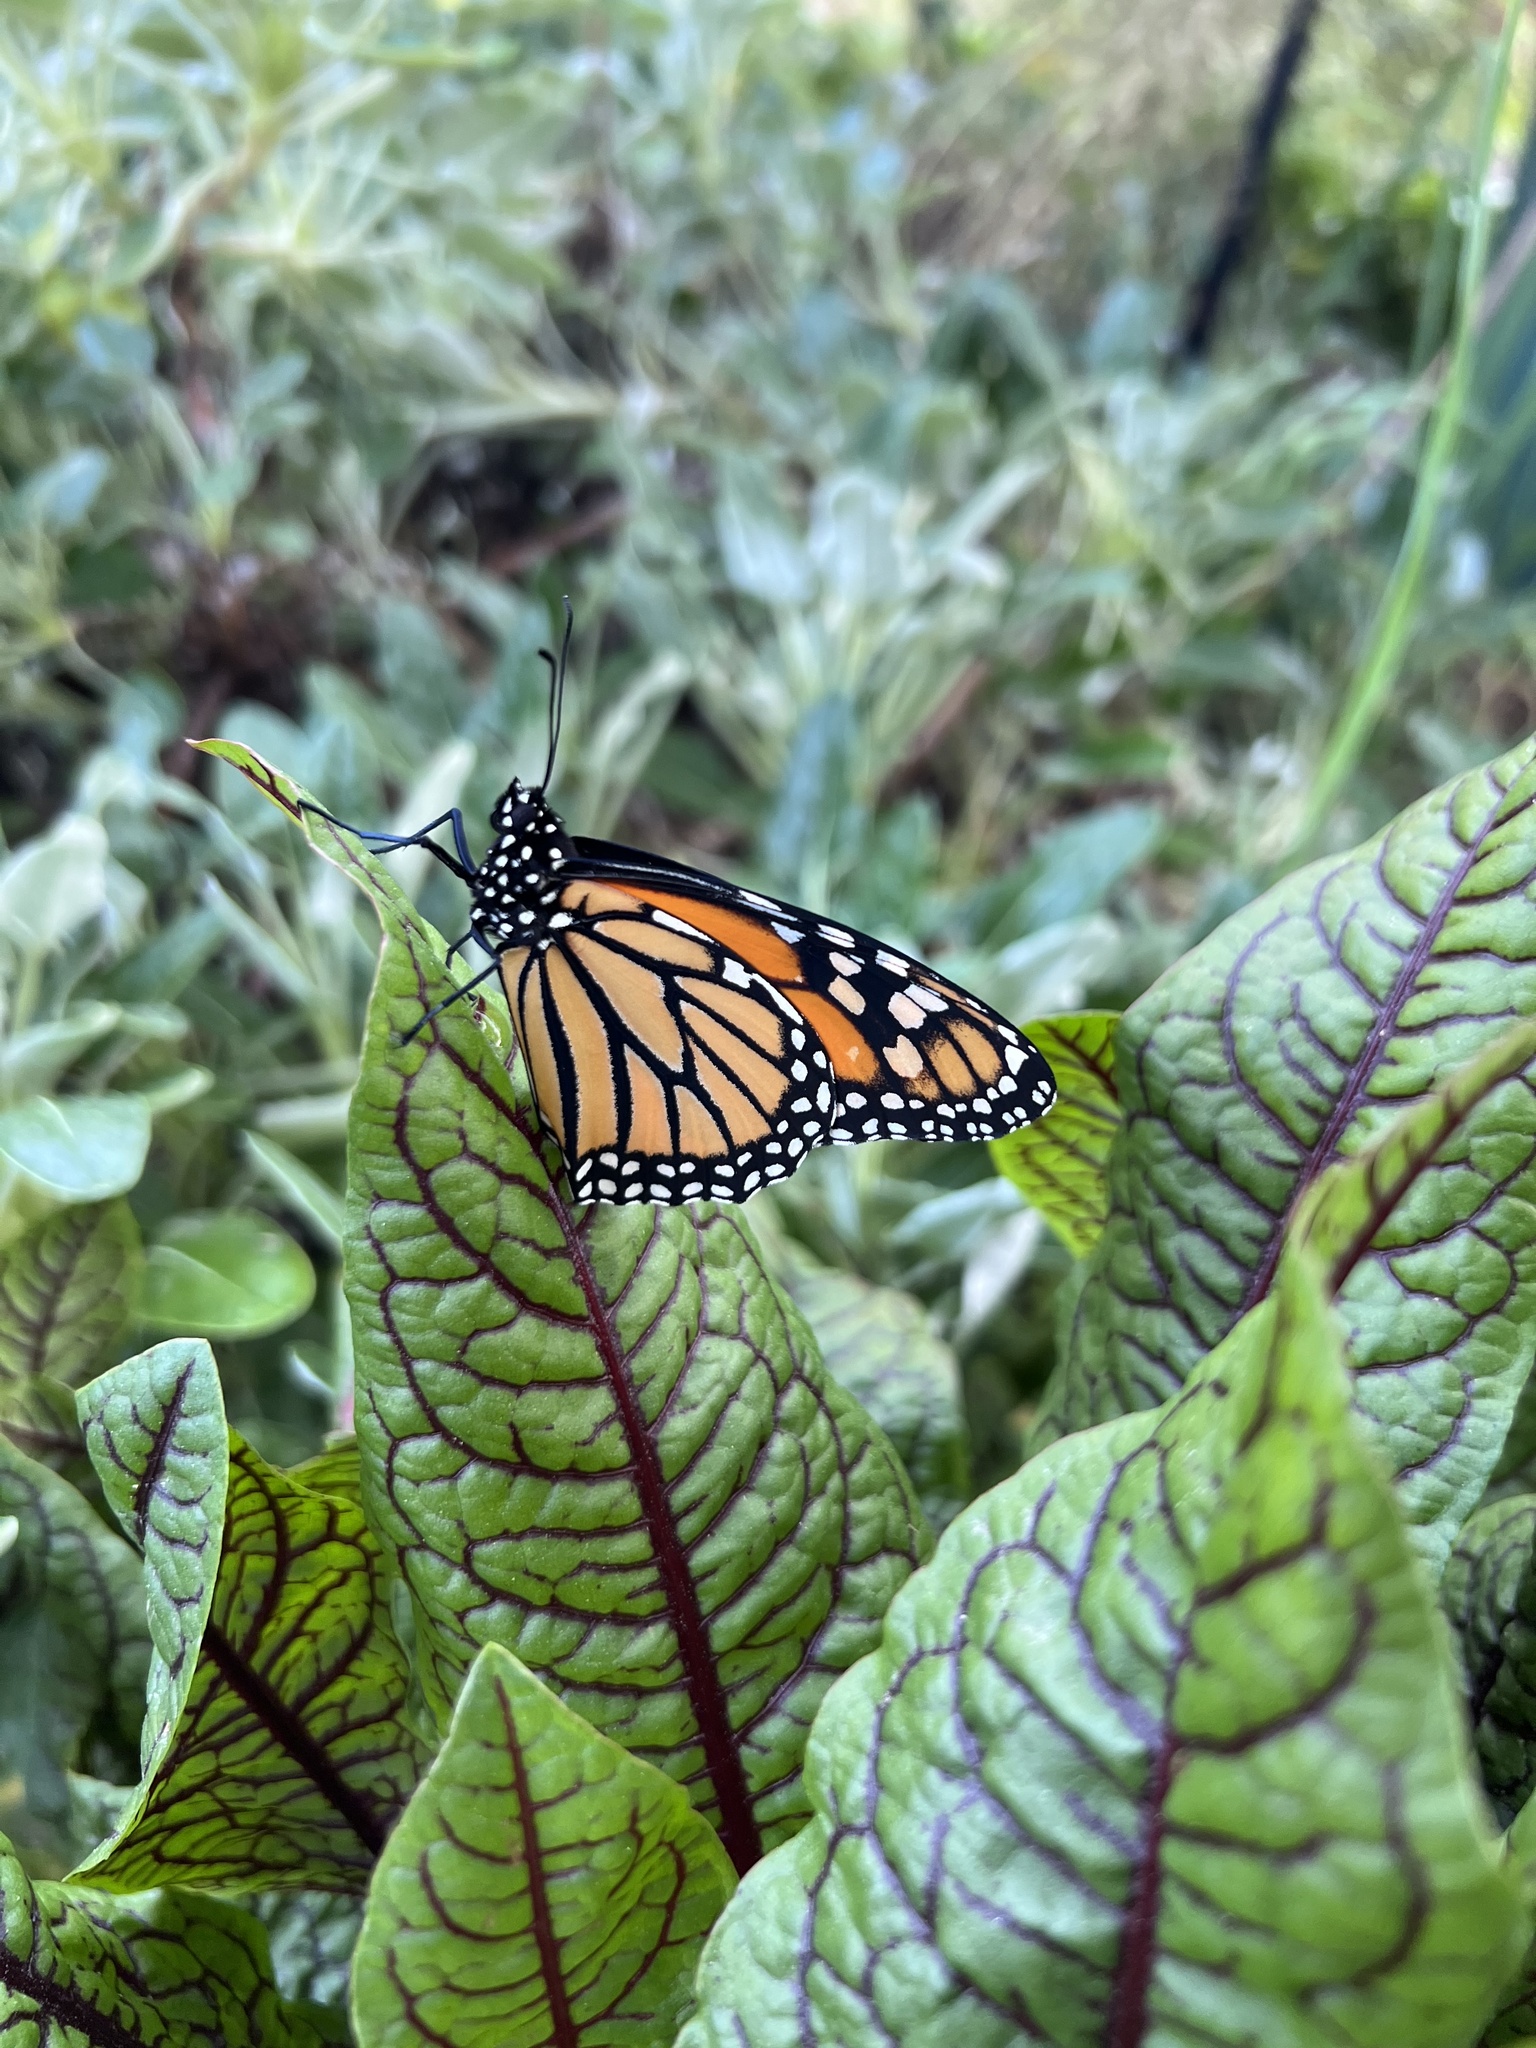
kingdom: Animalia
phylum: Arthropoda
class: Insecta
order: Lepidoptera
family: Nymphalidae
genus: Danaus
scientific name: Danaus plexippus
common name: Monarch
